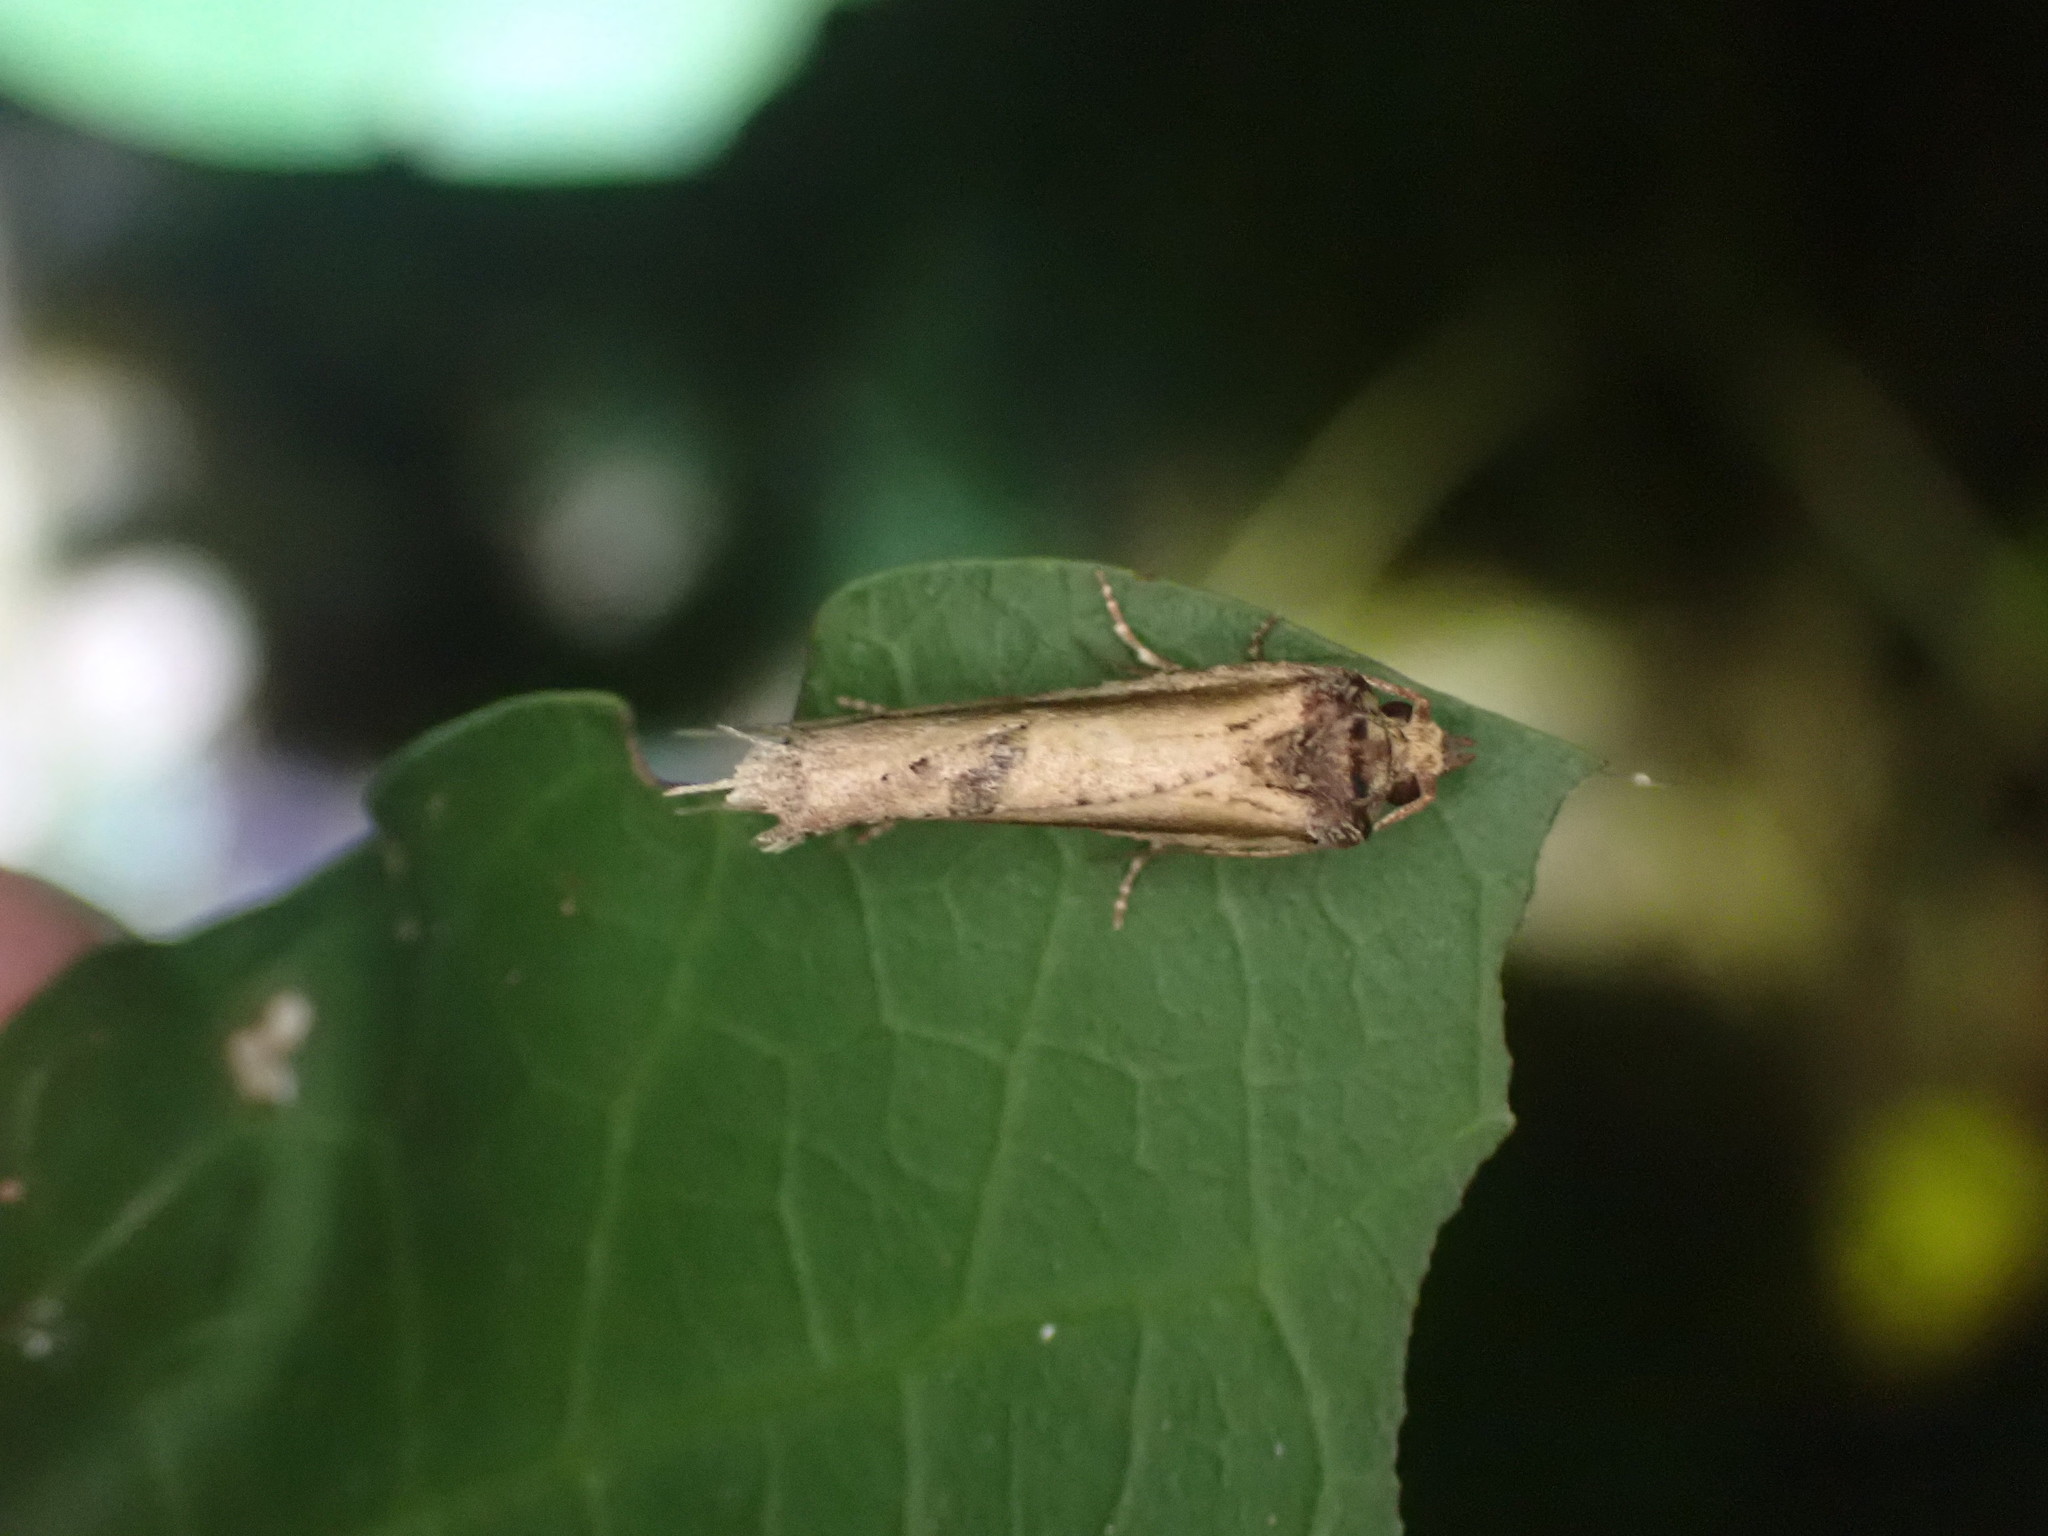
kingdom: Animalia
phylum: Arthropoda
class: Insecta
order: Lepidoptera
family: Tortricidae
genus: Epalxiphora
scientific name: Epalxiphora axenana
